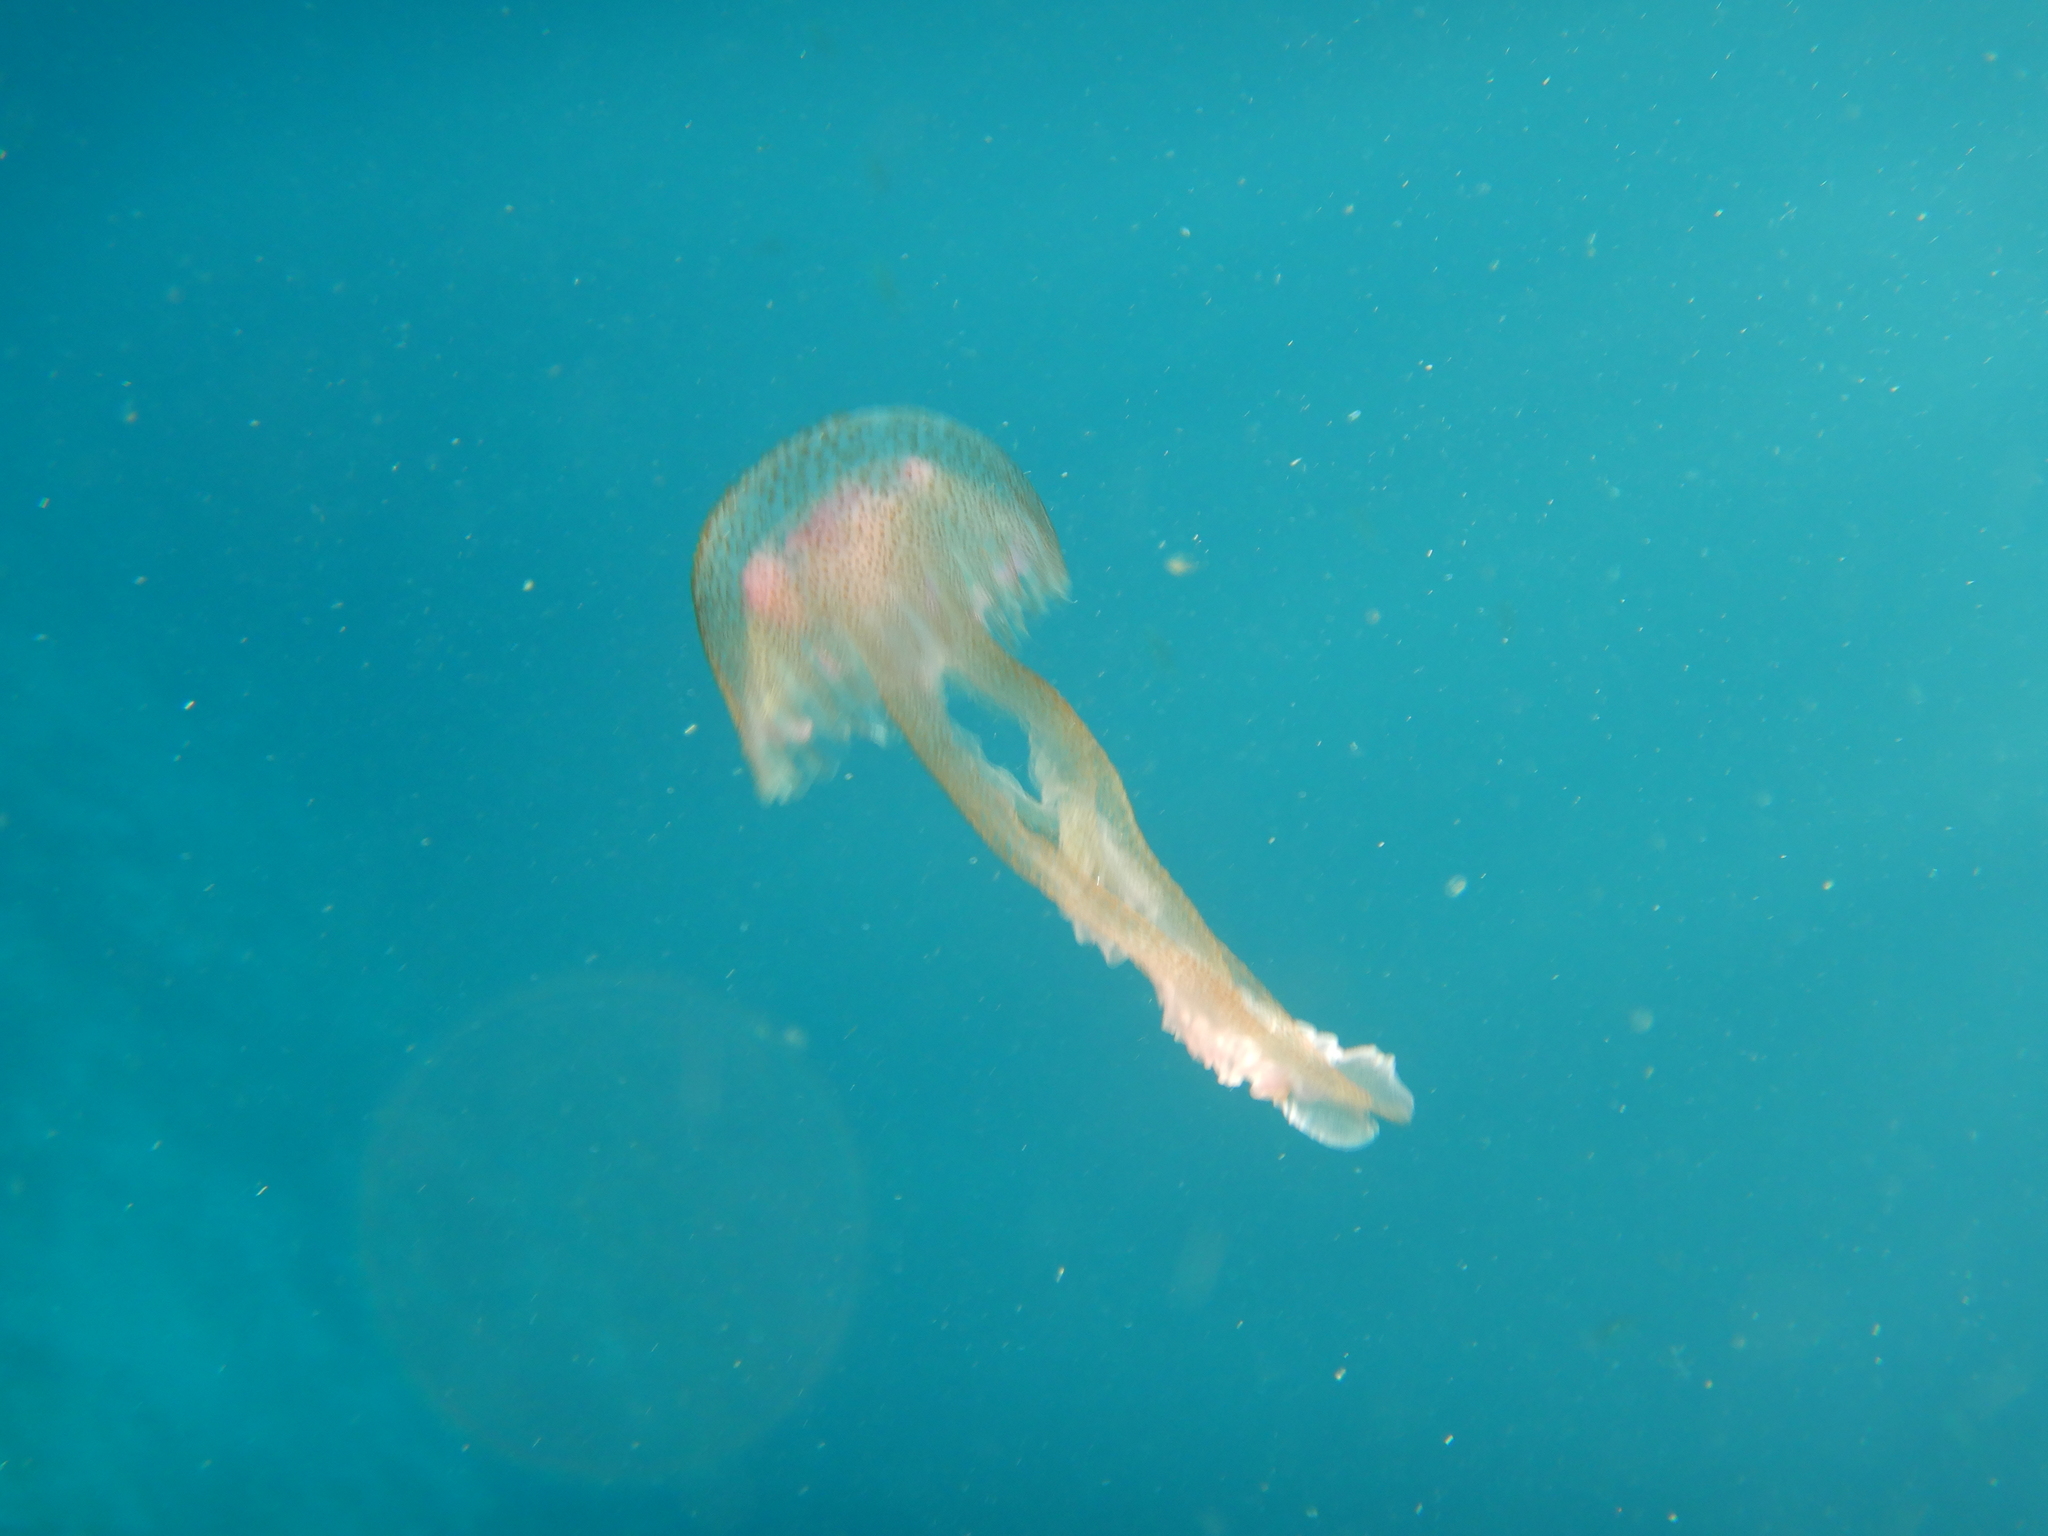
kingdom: Animalia
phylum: Cnidaria
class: Scyphozoa
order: Semaeostomeae
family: Pelagiidae
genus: Pelagia
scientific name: Pelagia noctiluca
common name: Mauve stinger
